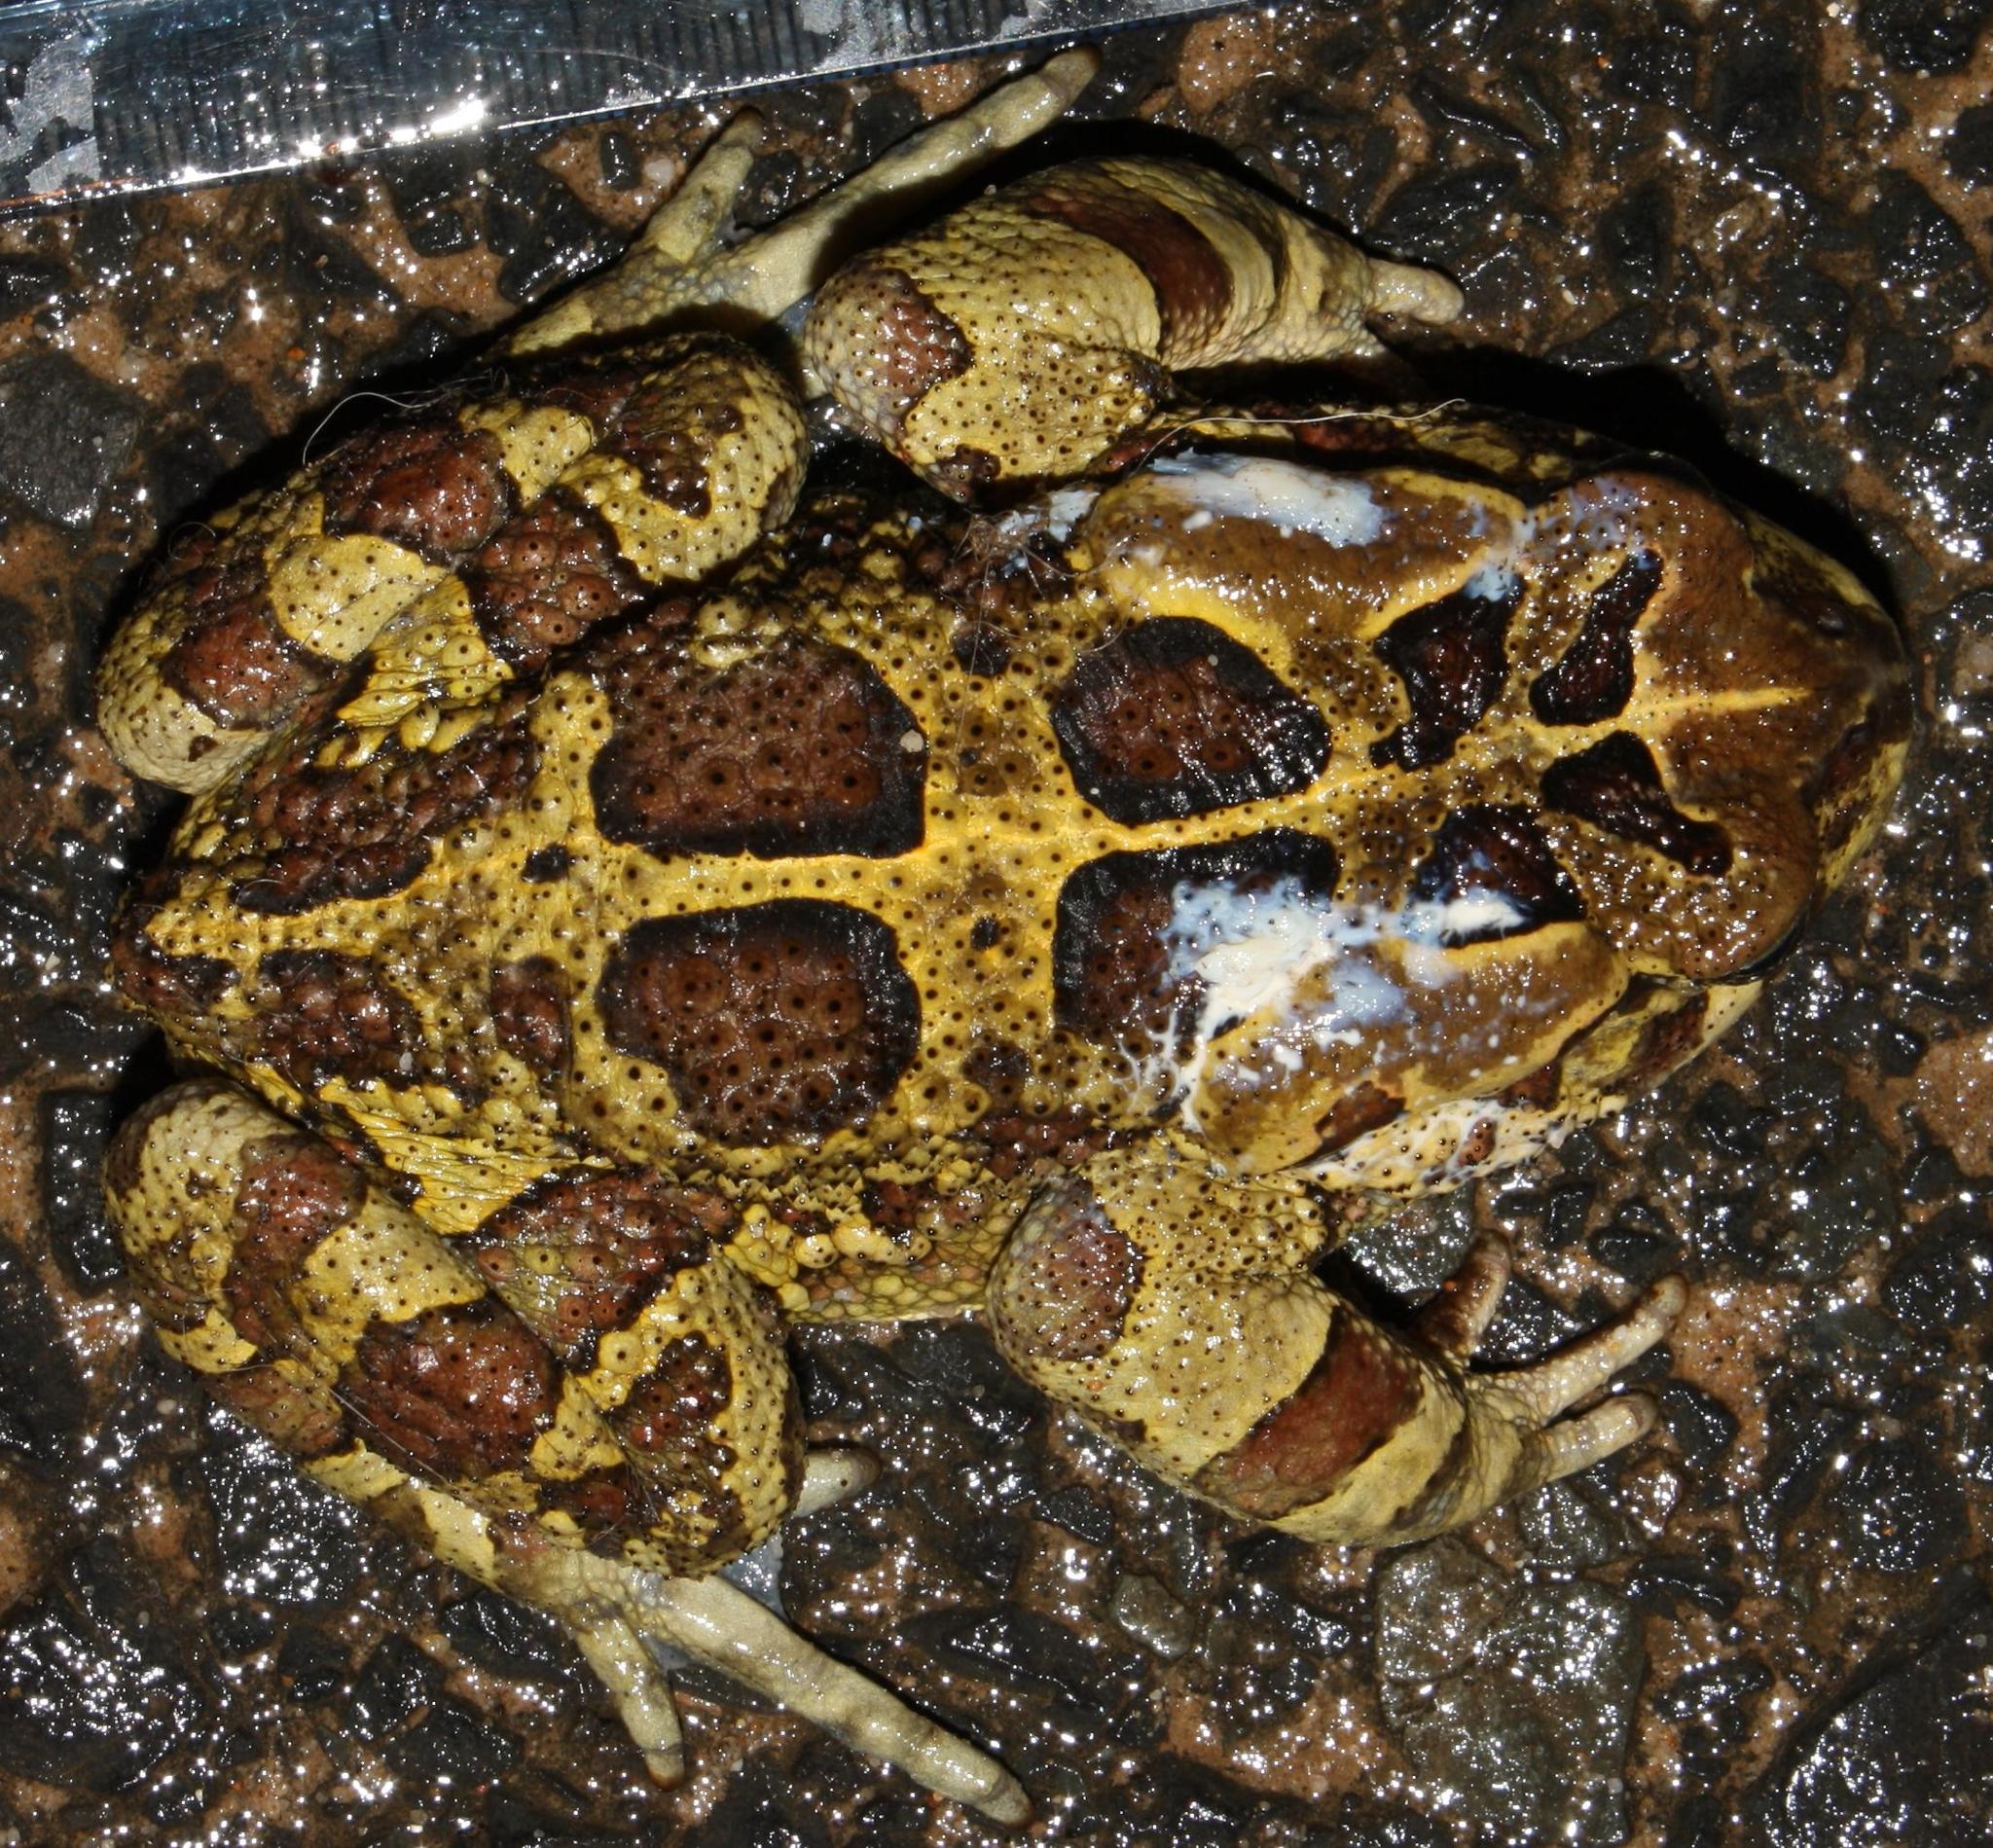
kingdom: Animalia
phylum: Chordata
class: Amphibia
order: Anura
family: Bufonidae
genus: Sclerophrys
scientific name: Sclerophrys pantherina
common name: Panther toad
